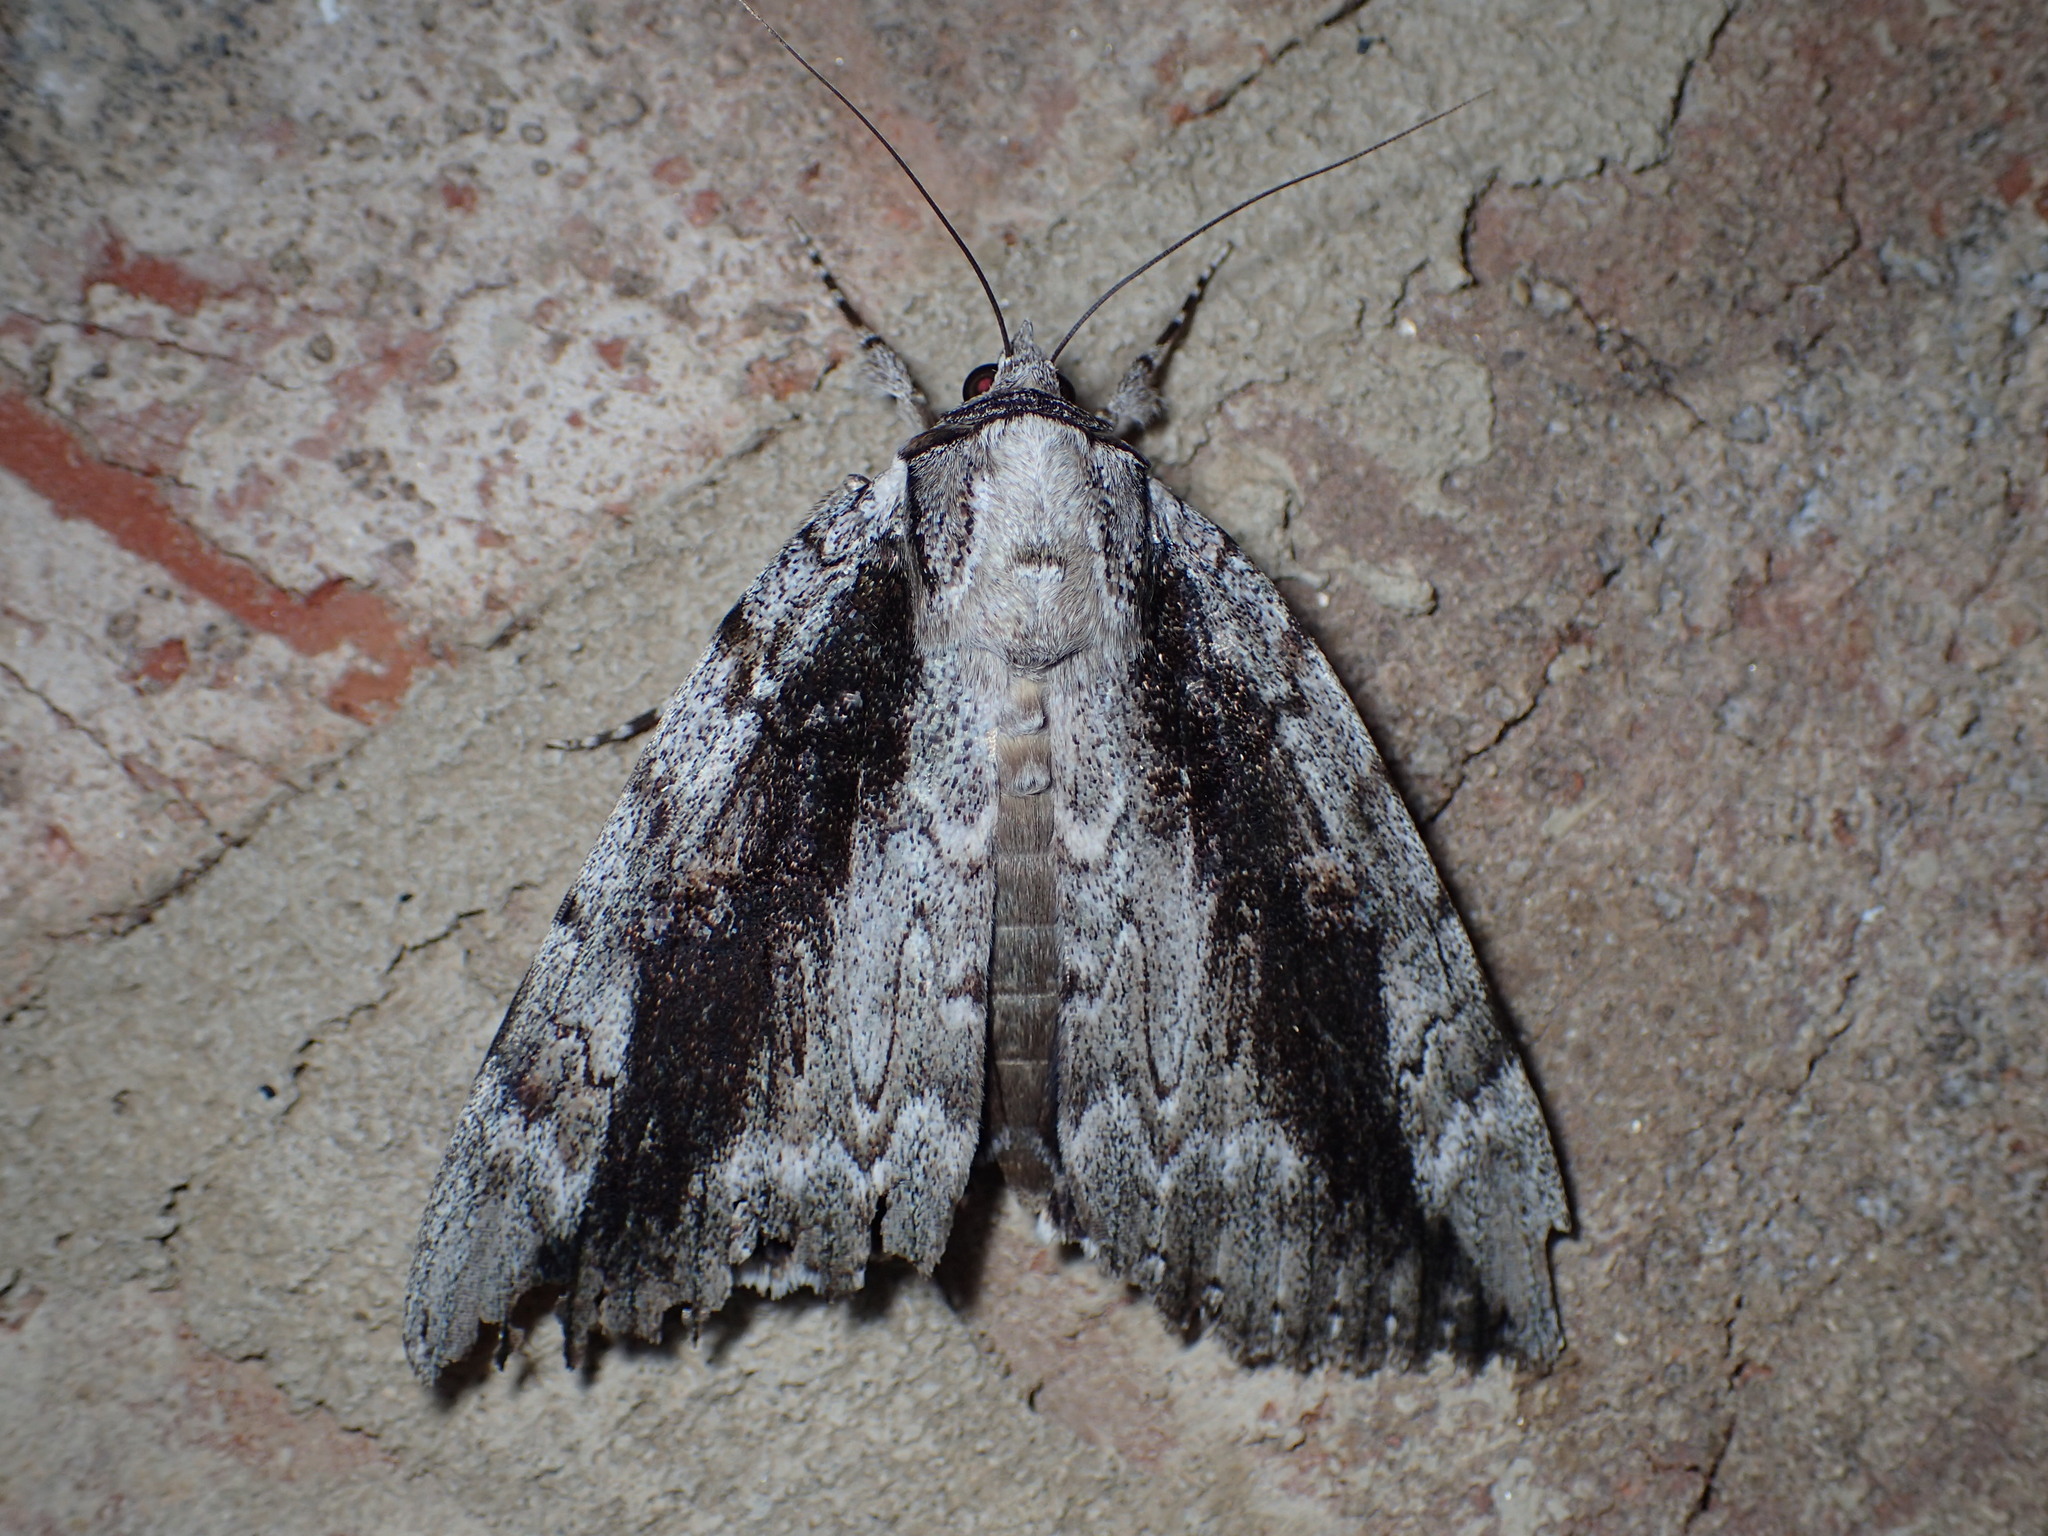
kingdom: Animalia
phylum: Arthropoda
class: Insecta
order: Lepidoptera
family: Erebidae
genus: Catocala
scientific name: Catocala robinsoni
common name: Robinson's underwing
